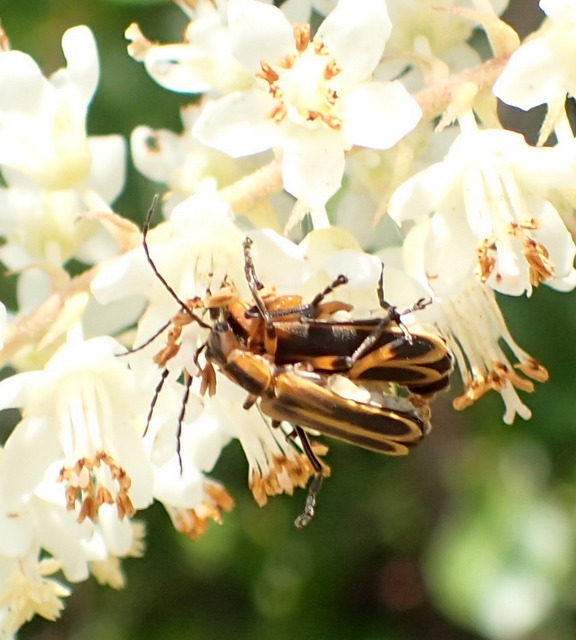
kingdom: Animalia
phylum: Arthropoda
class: Insecta
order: Coleoptera
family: Cantharidae
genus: Chauliognathus
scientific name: Chauliognathus marginatus
